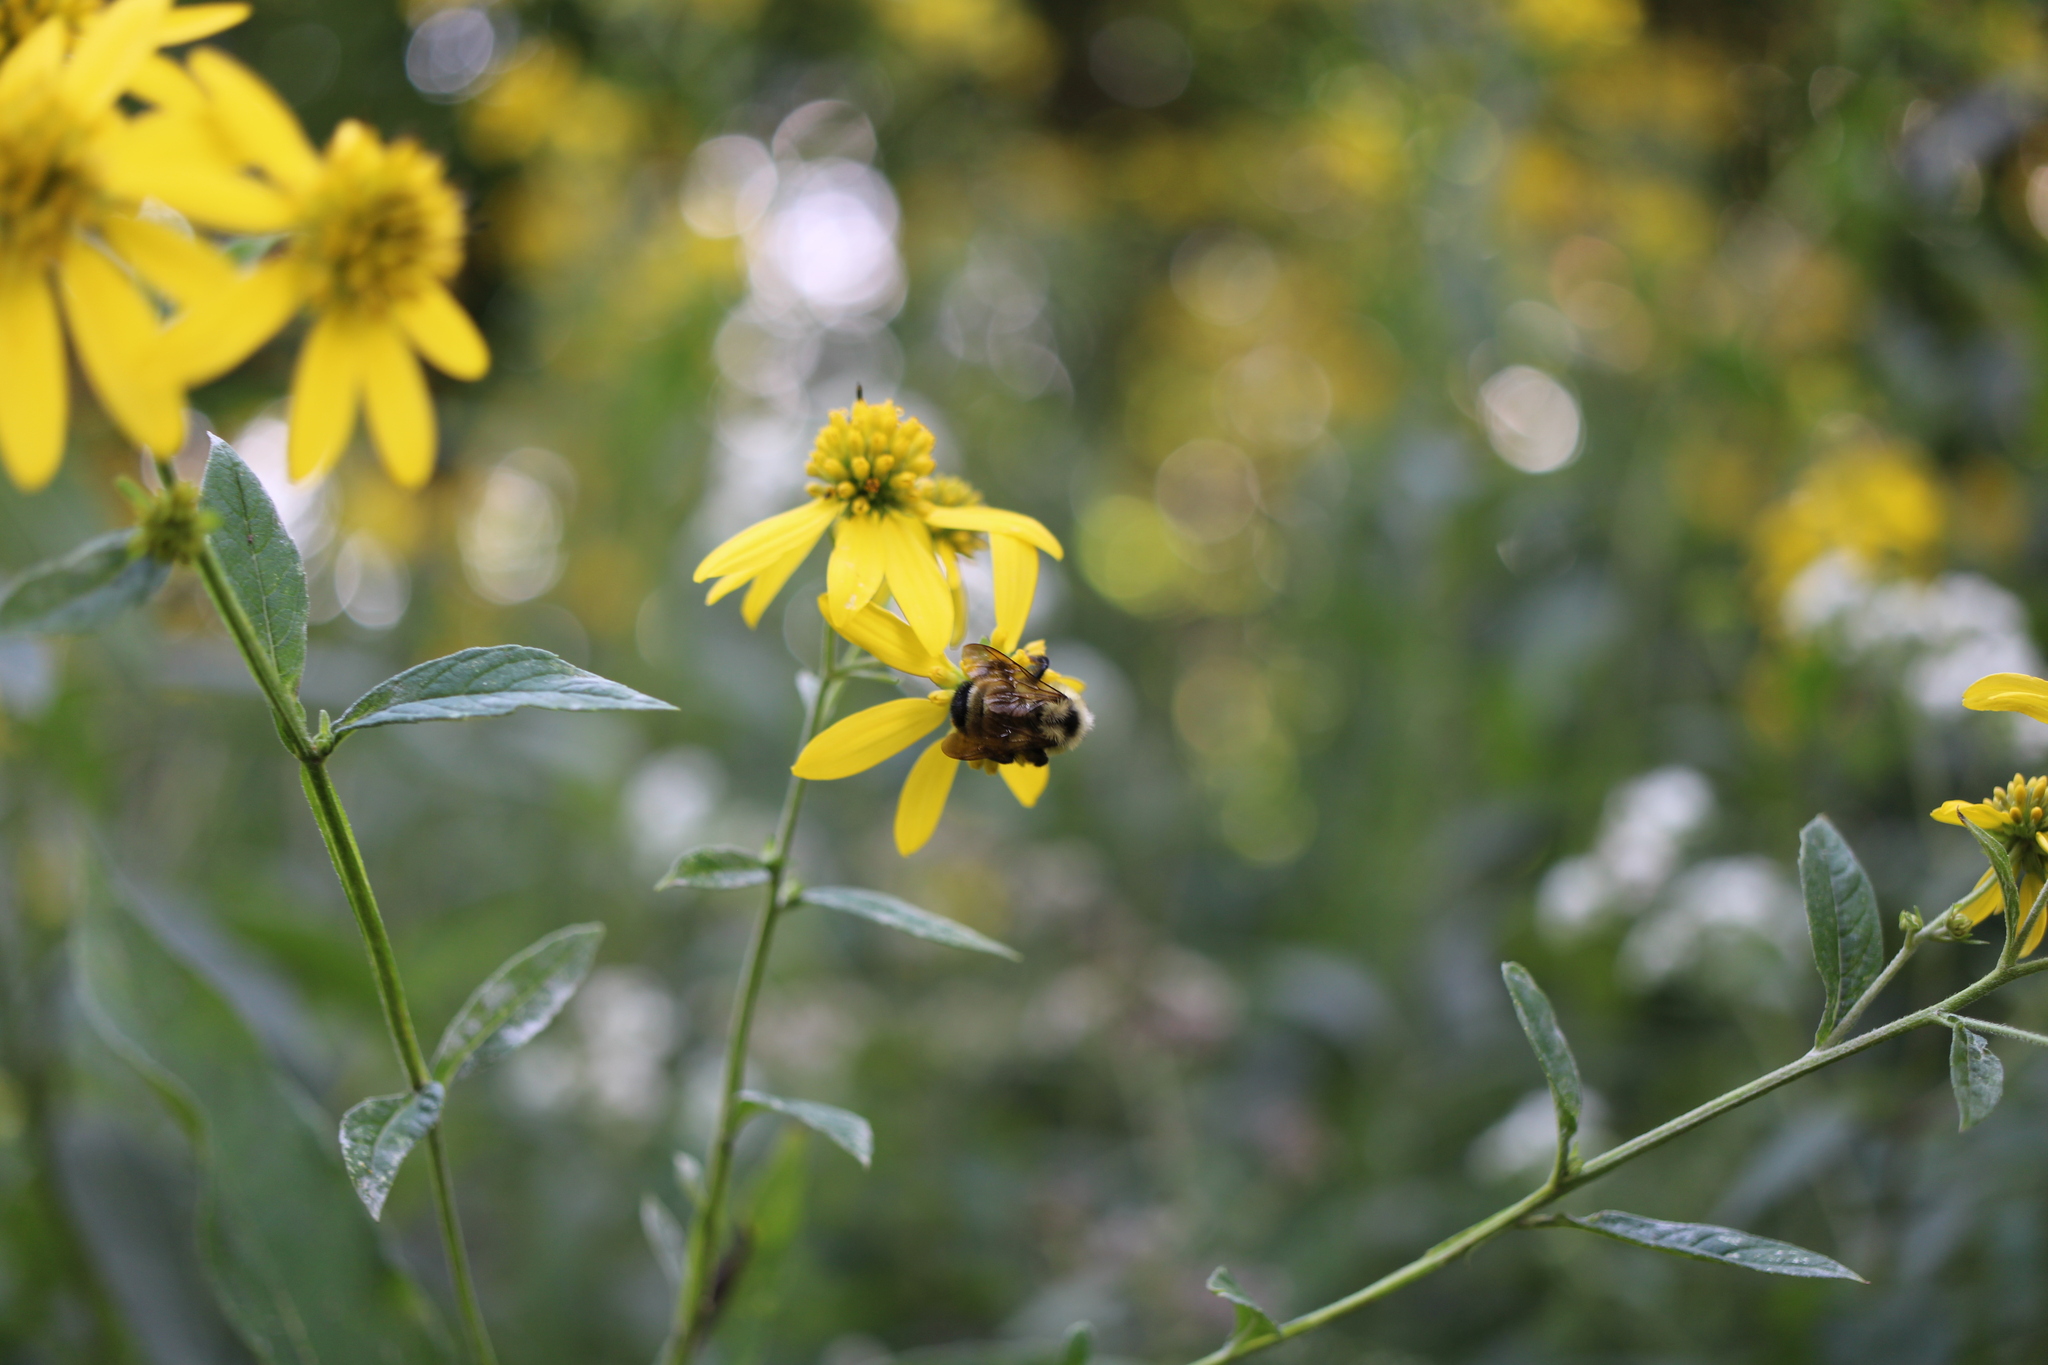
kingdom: Animalia
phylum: Arthropoda
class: Insecta
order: Hymenoptera
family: Apidae
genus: Bombus
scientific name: Bombus citrinus
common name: Lemon cuckoo bumble bee
